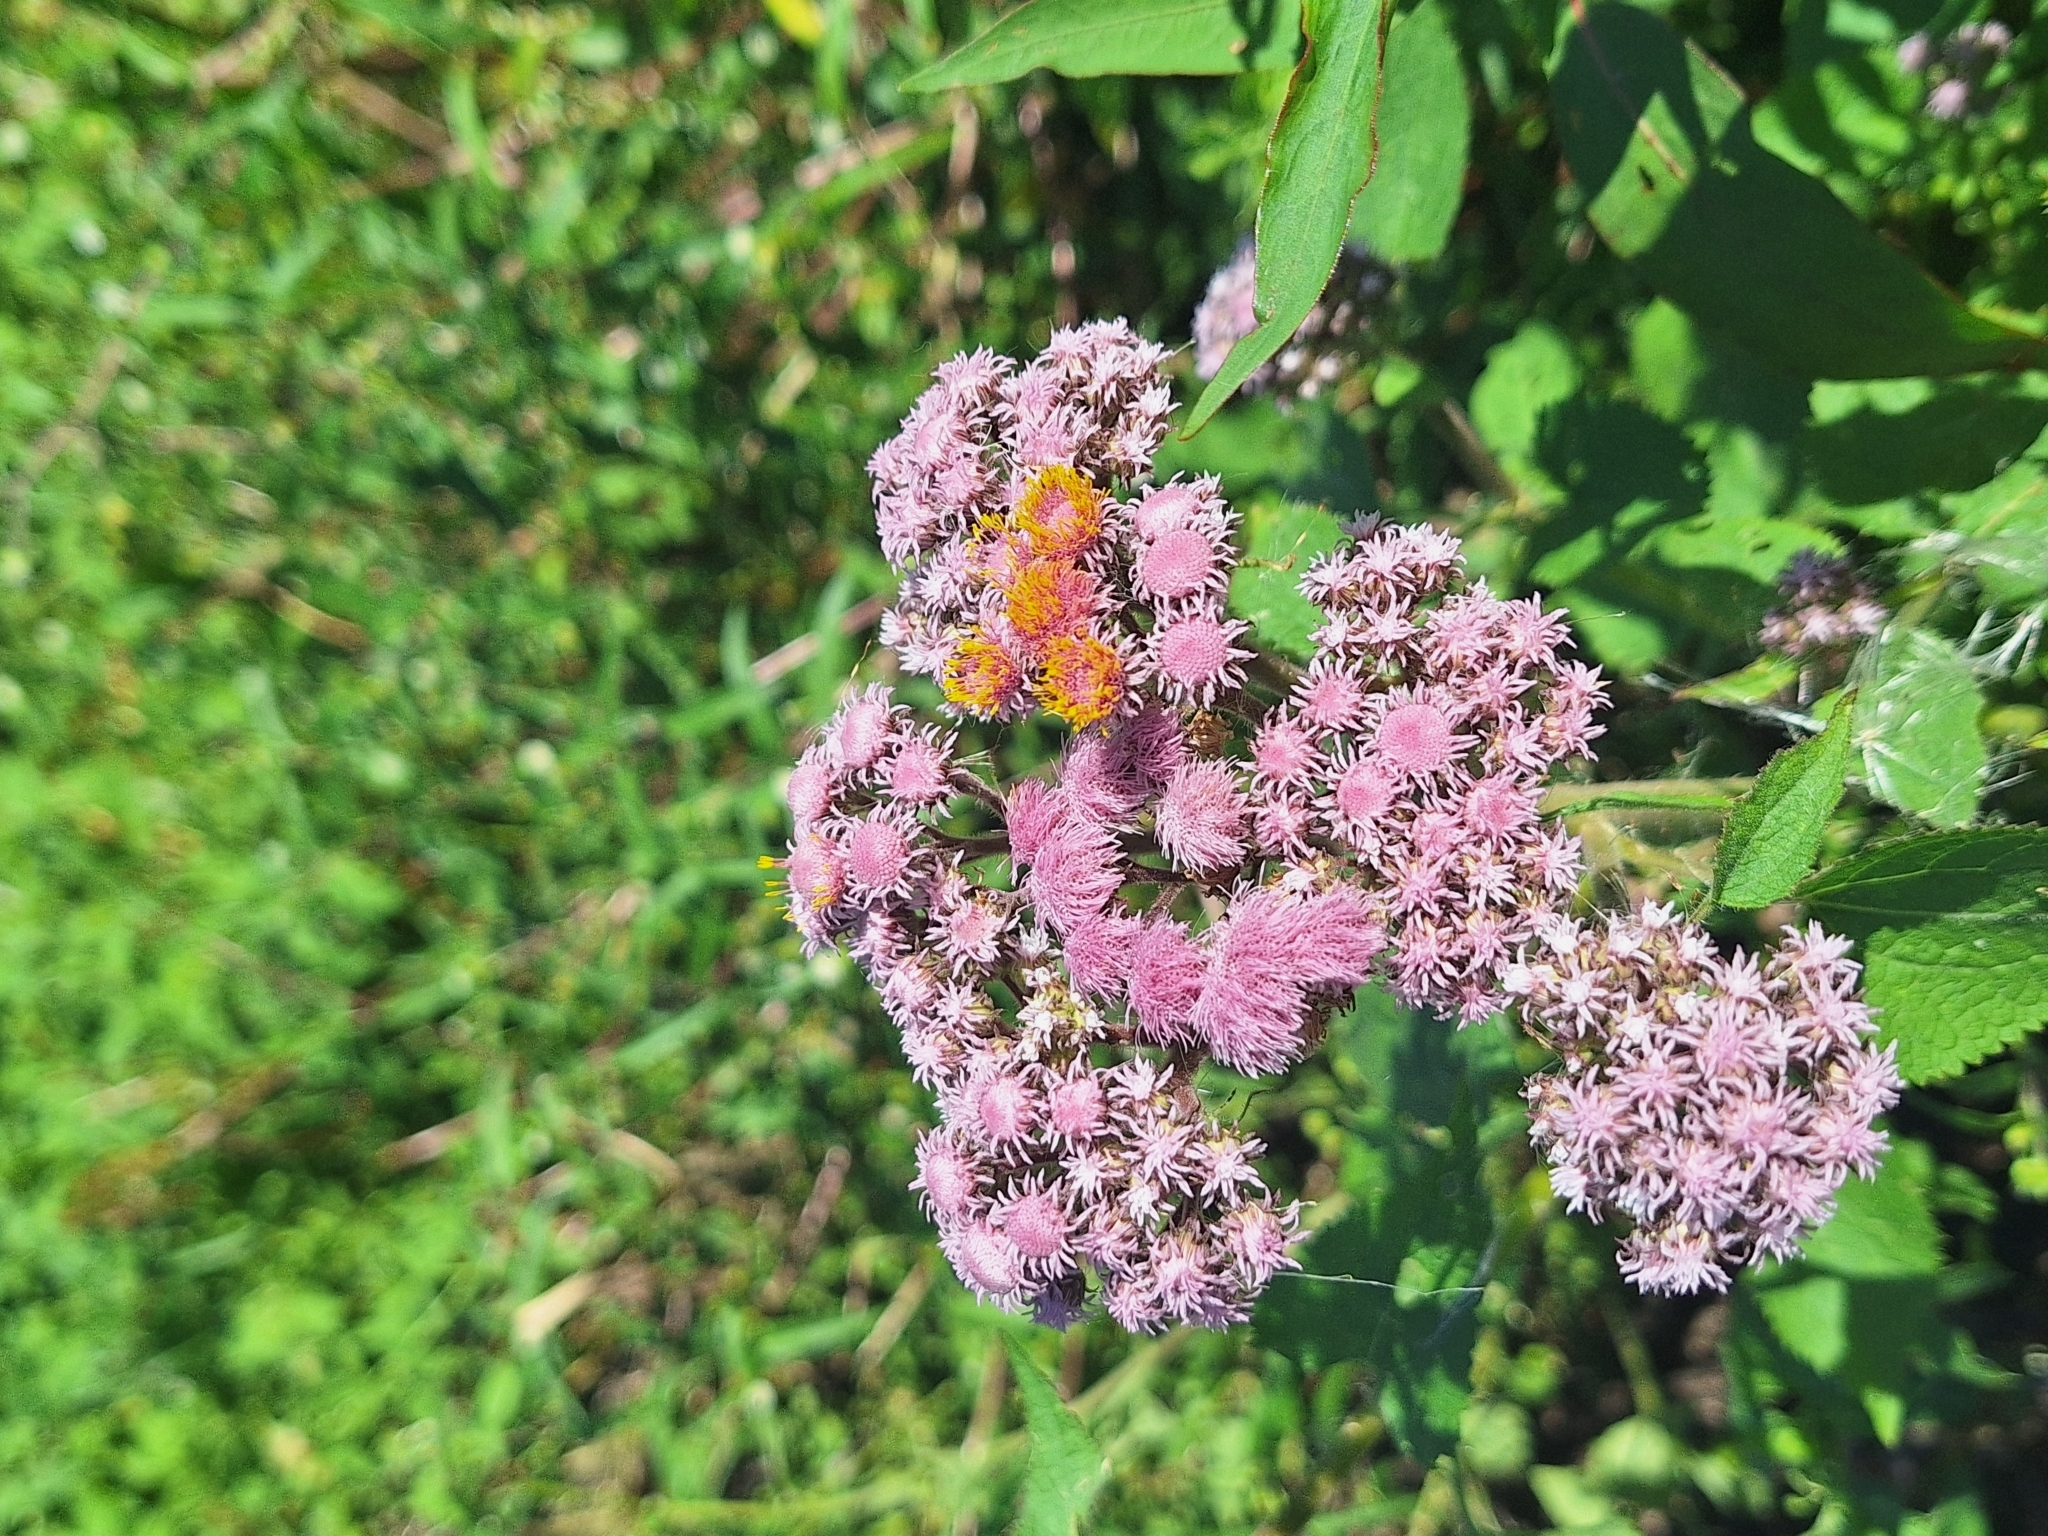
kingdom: Plantae
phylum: Tracheophyta
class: Magnoliopsida
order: Asterales
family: Asteraceae
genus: Urolepis
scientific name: Urolepis hecatantha
